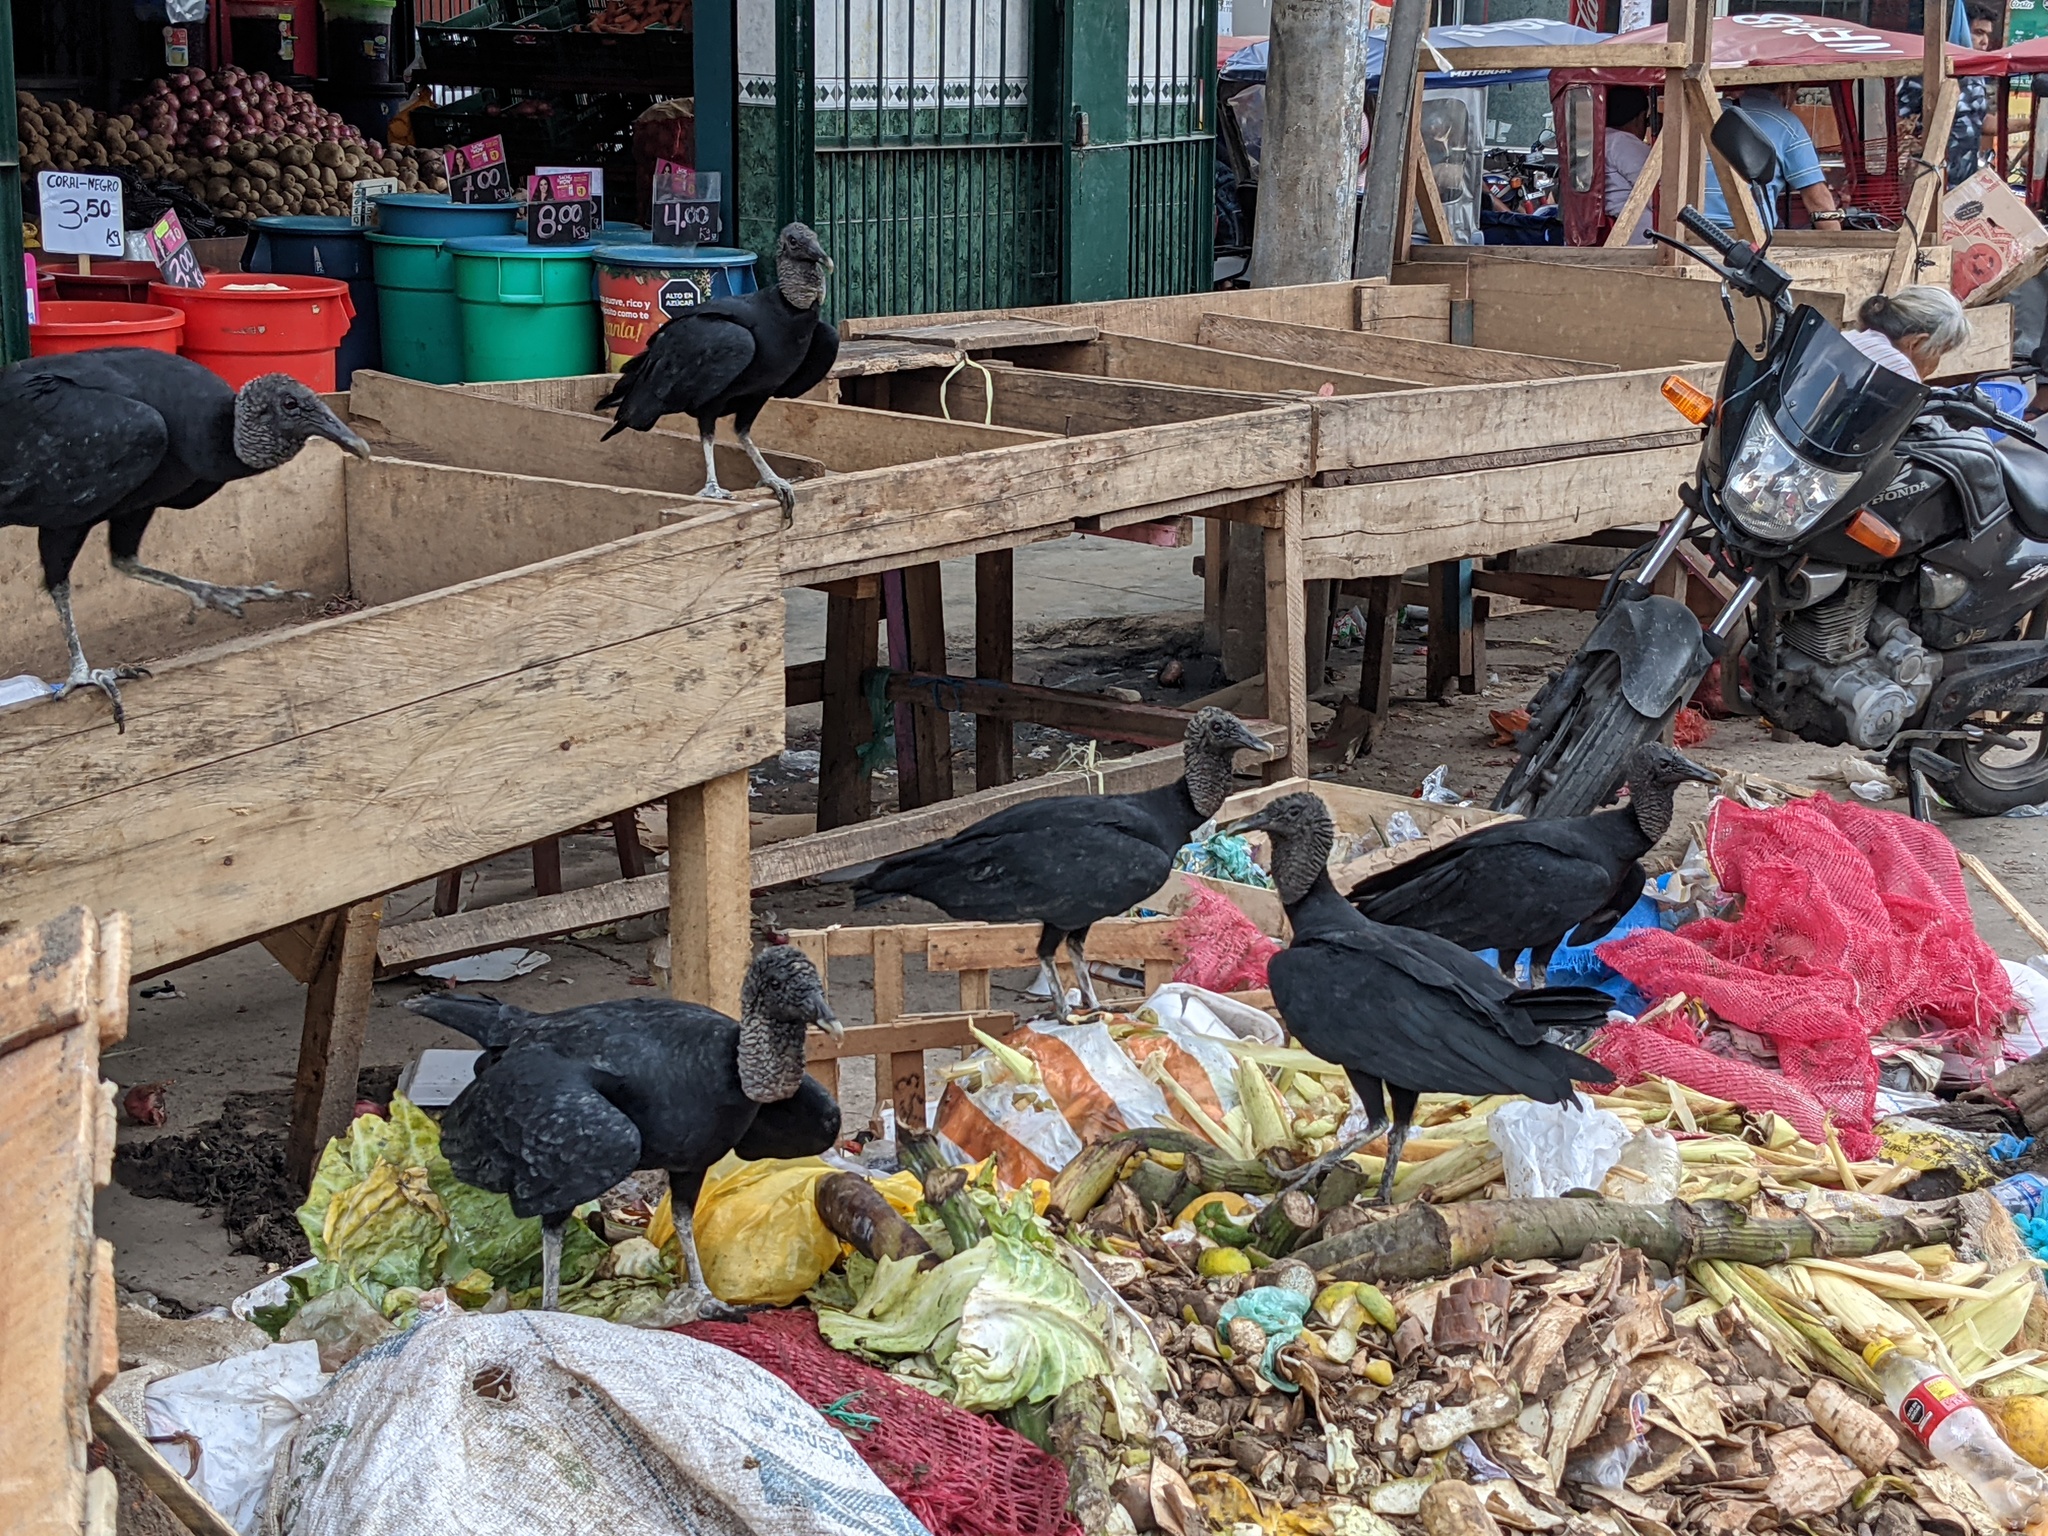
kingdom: Animalia
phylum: Chordata
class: Aves
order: Accipitriformes
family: Cathartidae
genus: Coragyps
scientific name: Coragyps atratus
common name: Black vulture
